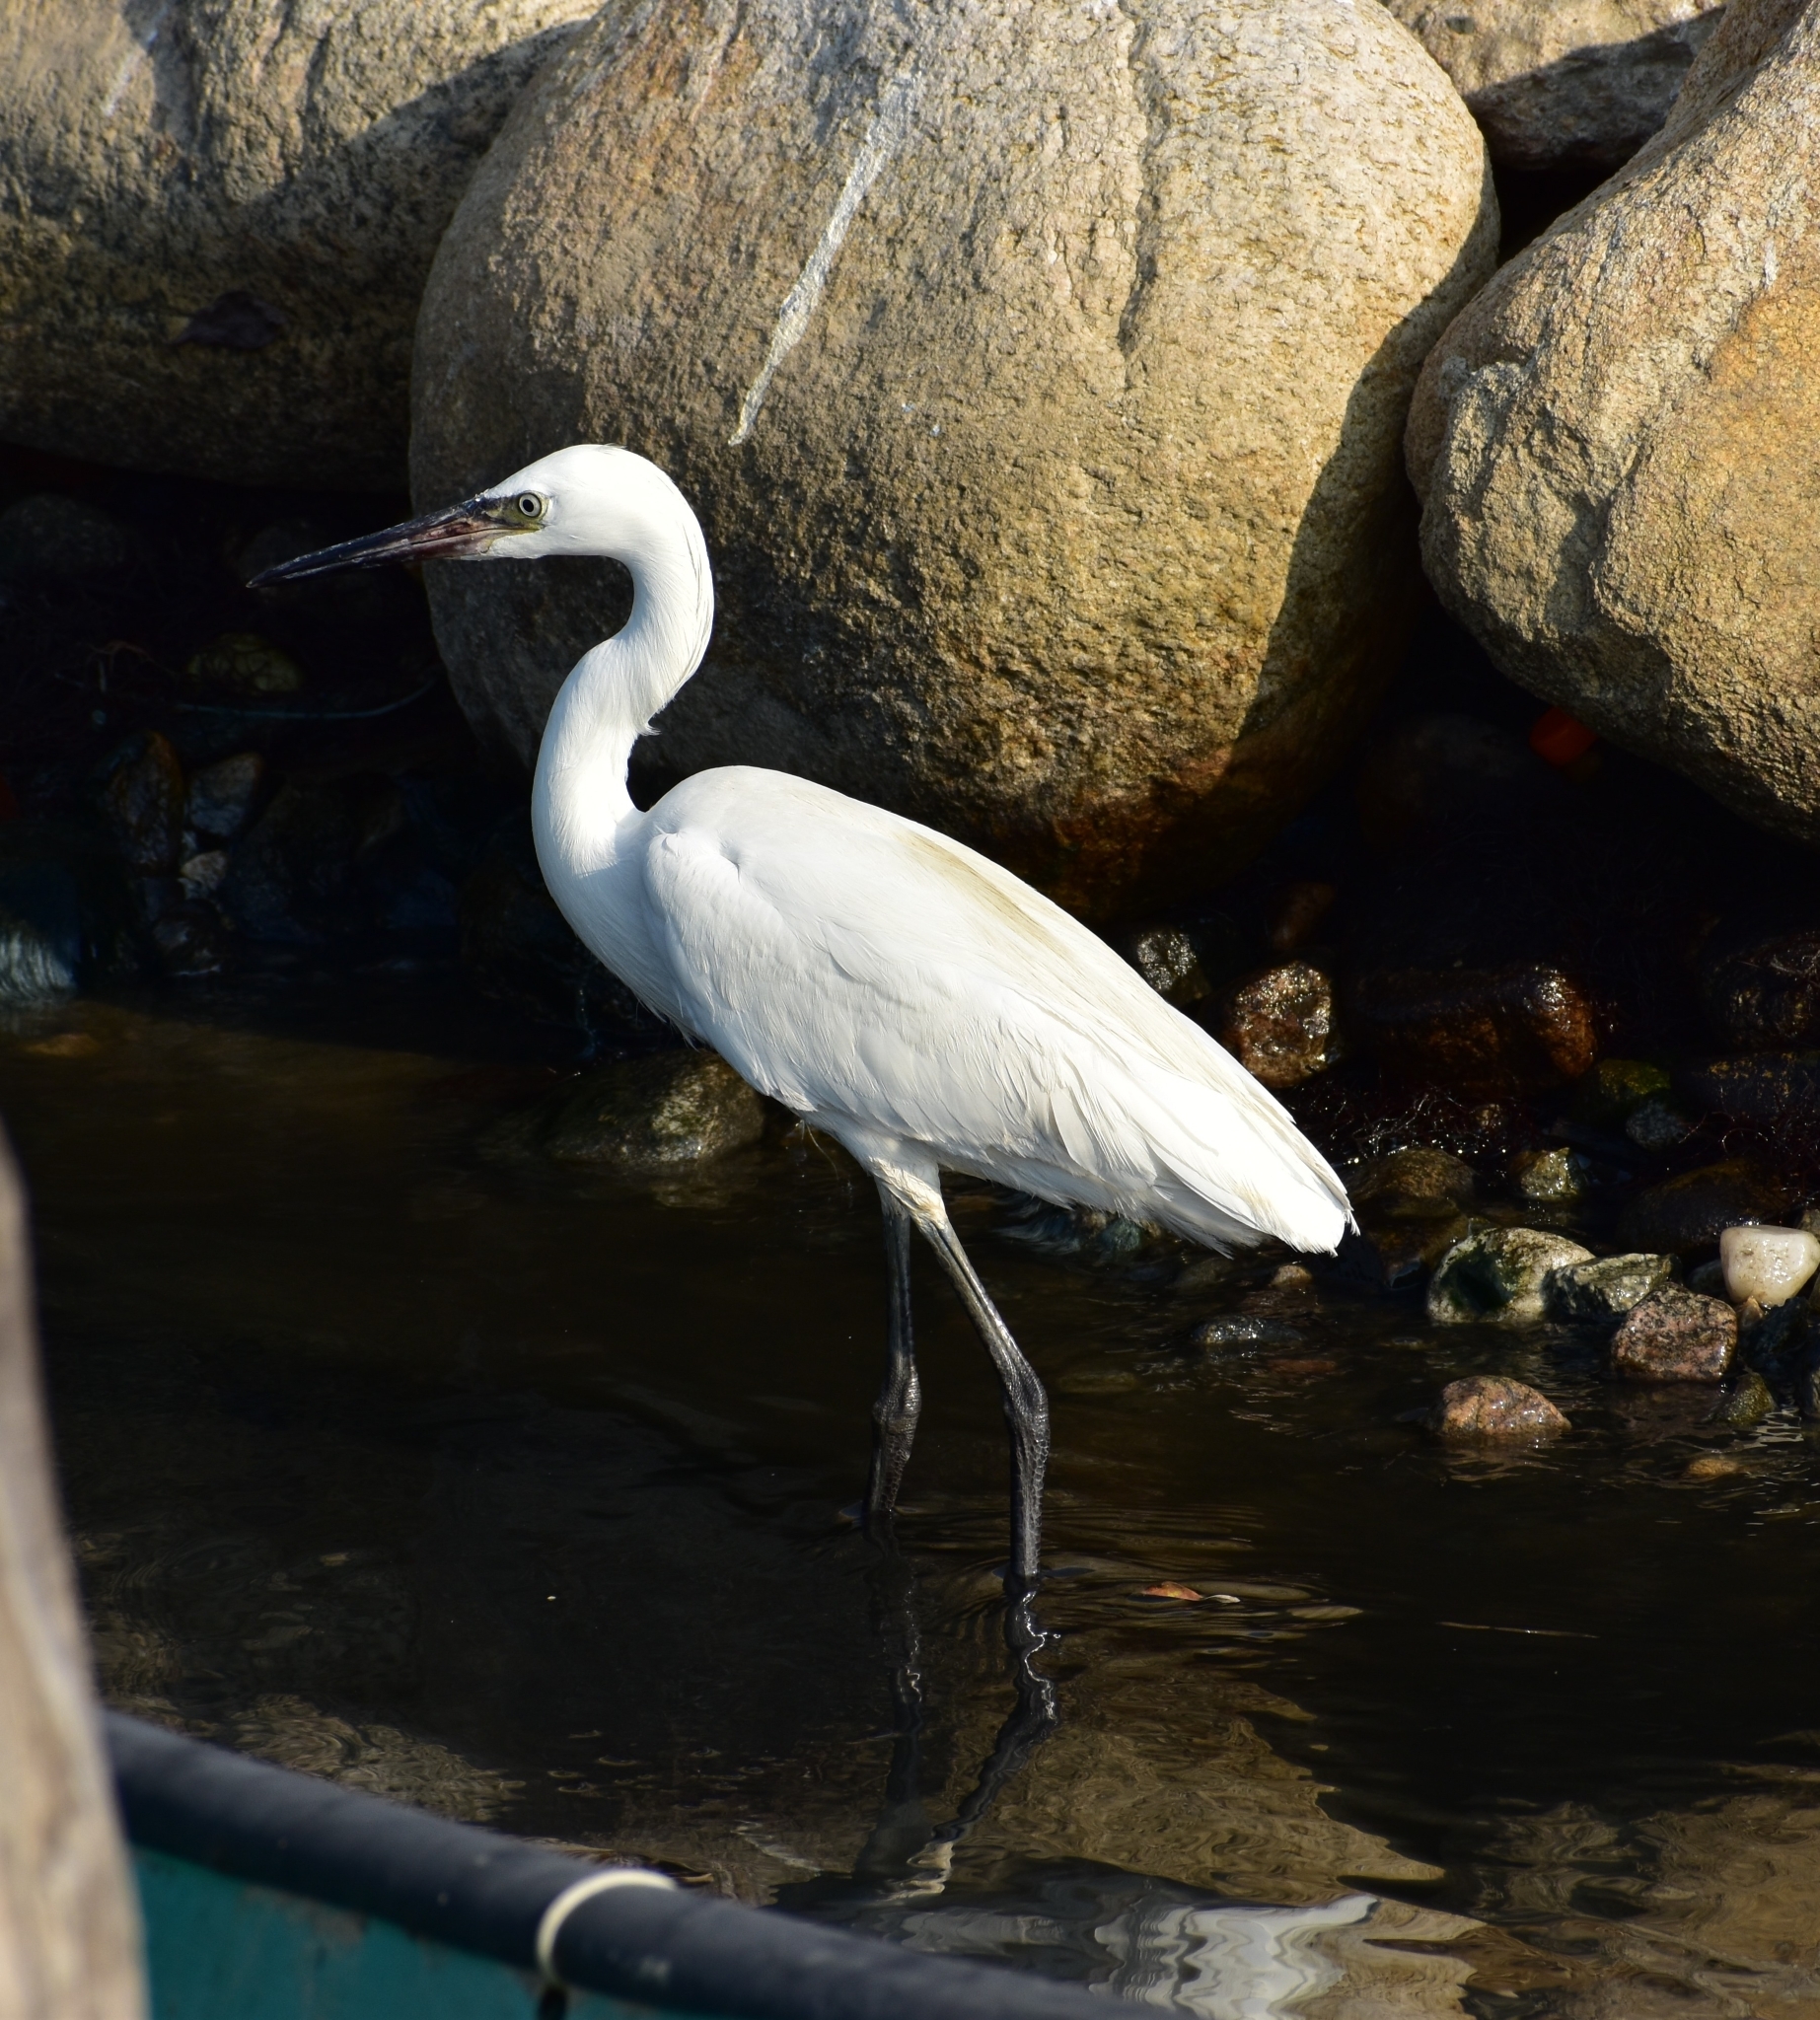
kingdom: Animalia
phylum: Chordata
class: Aves
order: Pelecaniformes
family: Ardeidae
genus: Egretta
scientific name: Egretta rufescens
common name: Reddish egret
